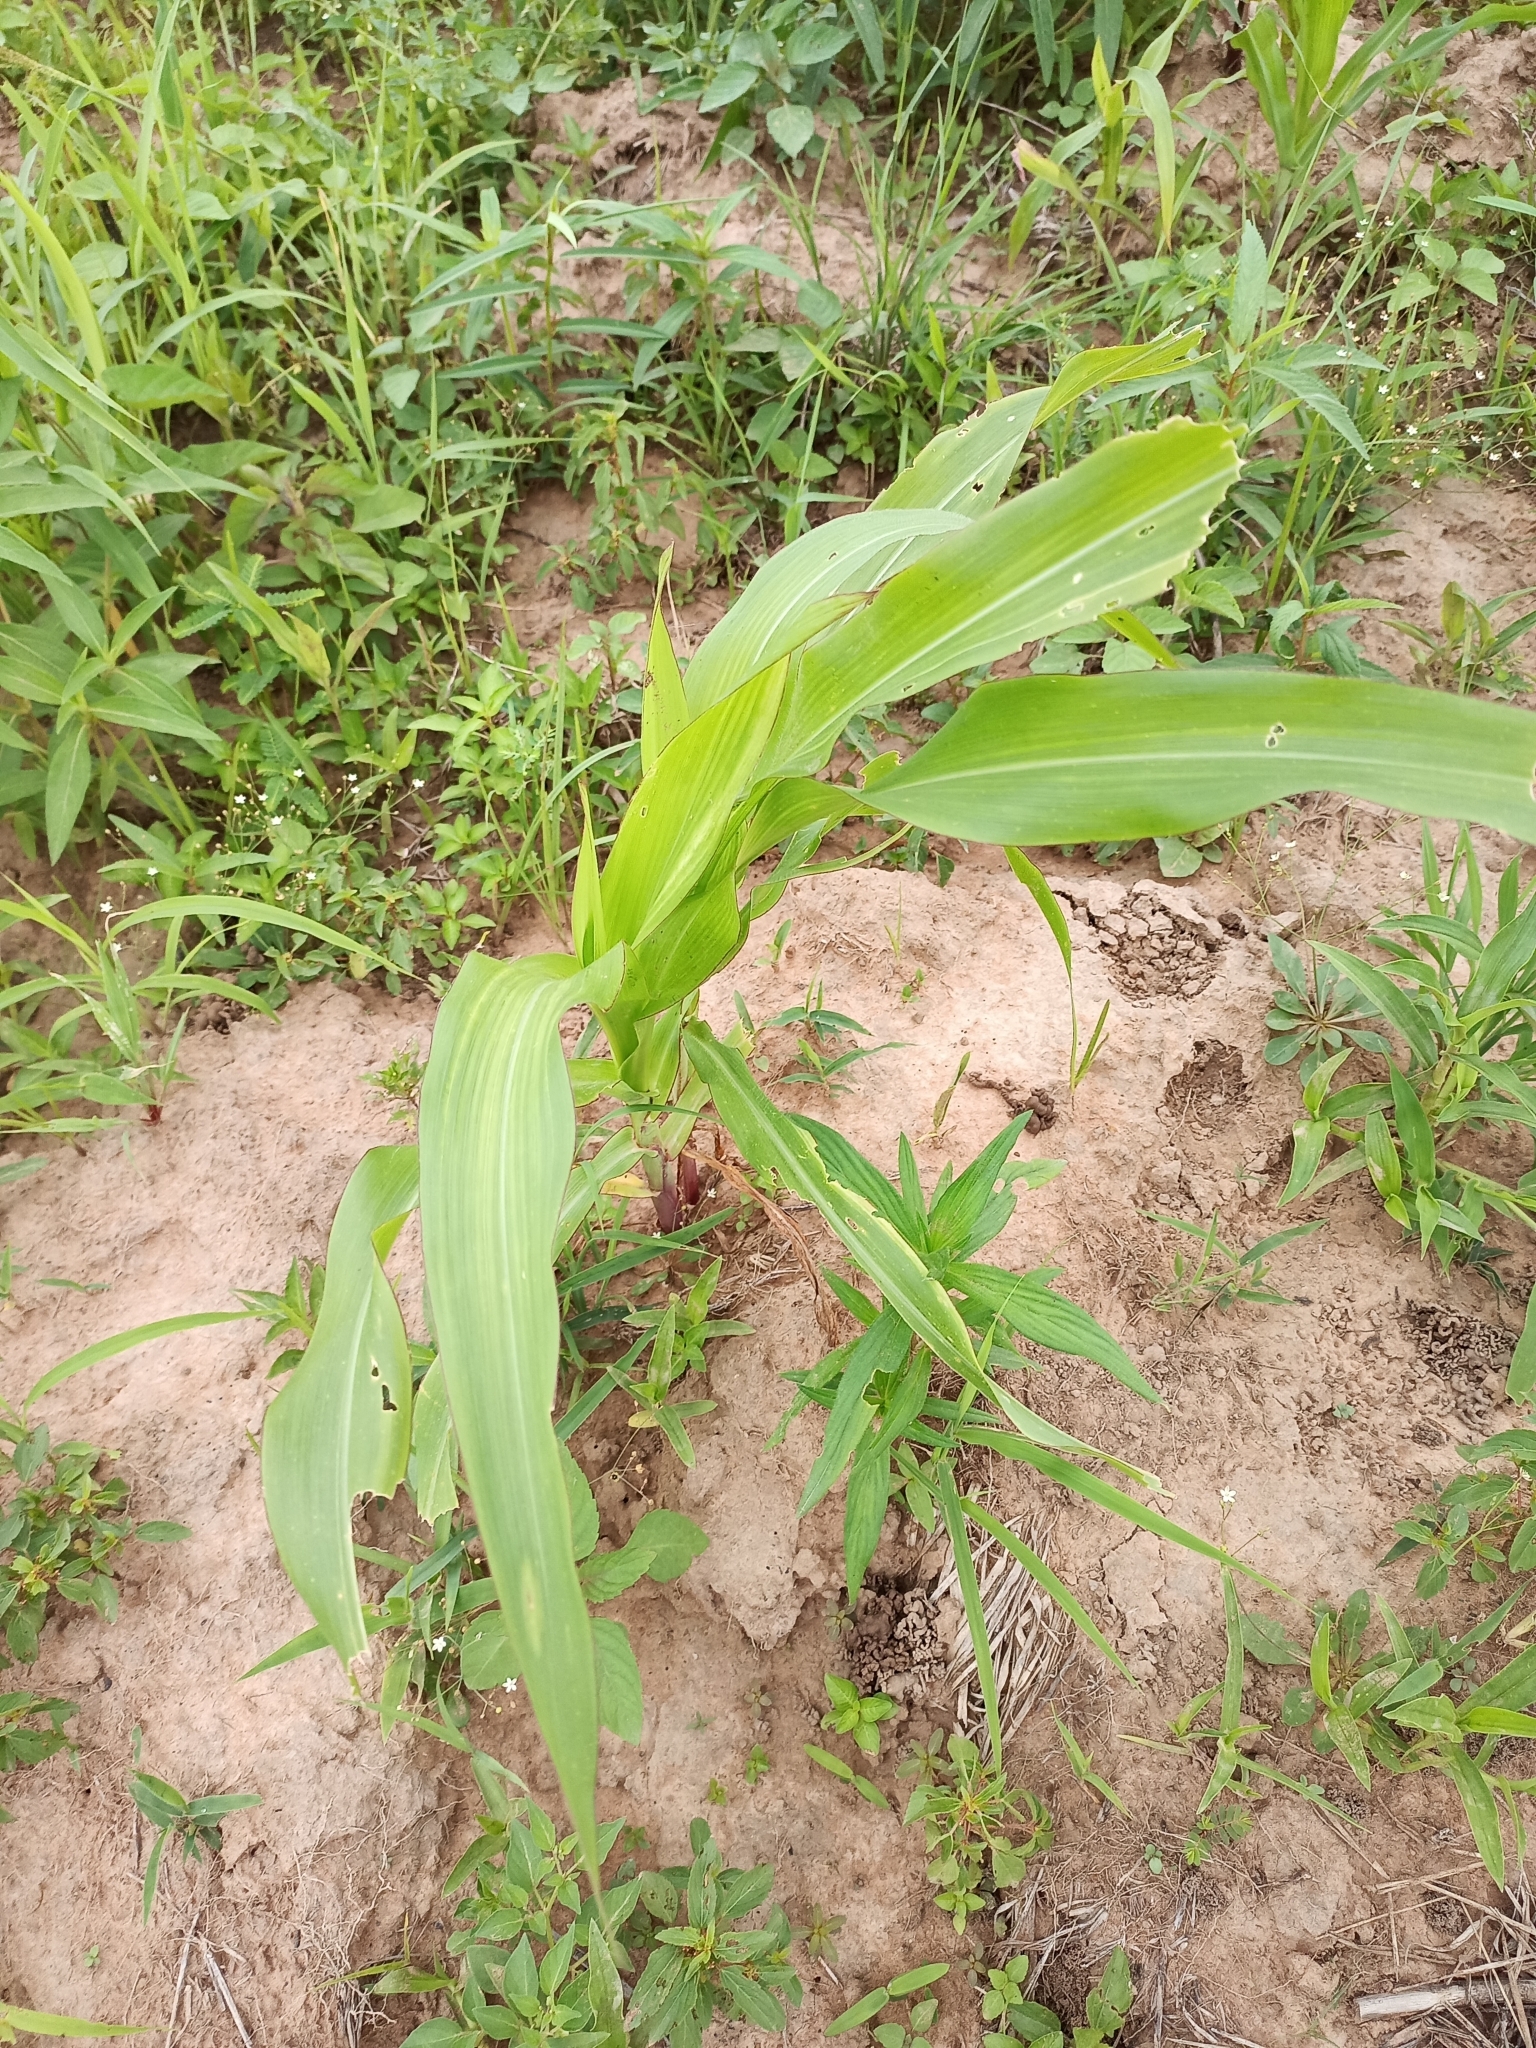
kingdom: Plantae
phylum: Tracheophyta
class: Liliopsida
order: Poales
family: Poaceae
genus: Zea
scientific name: Zea mays
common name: Maize
